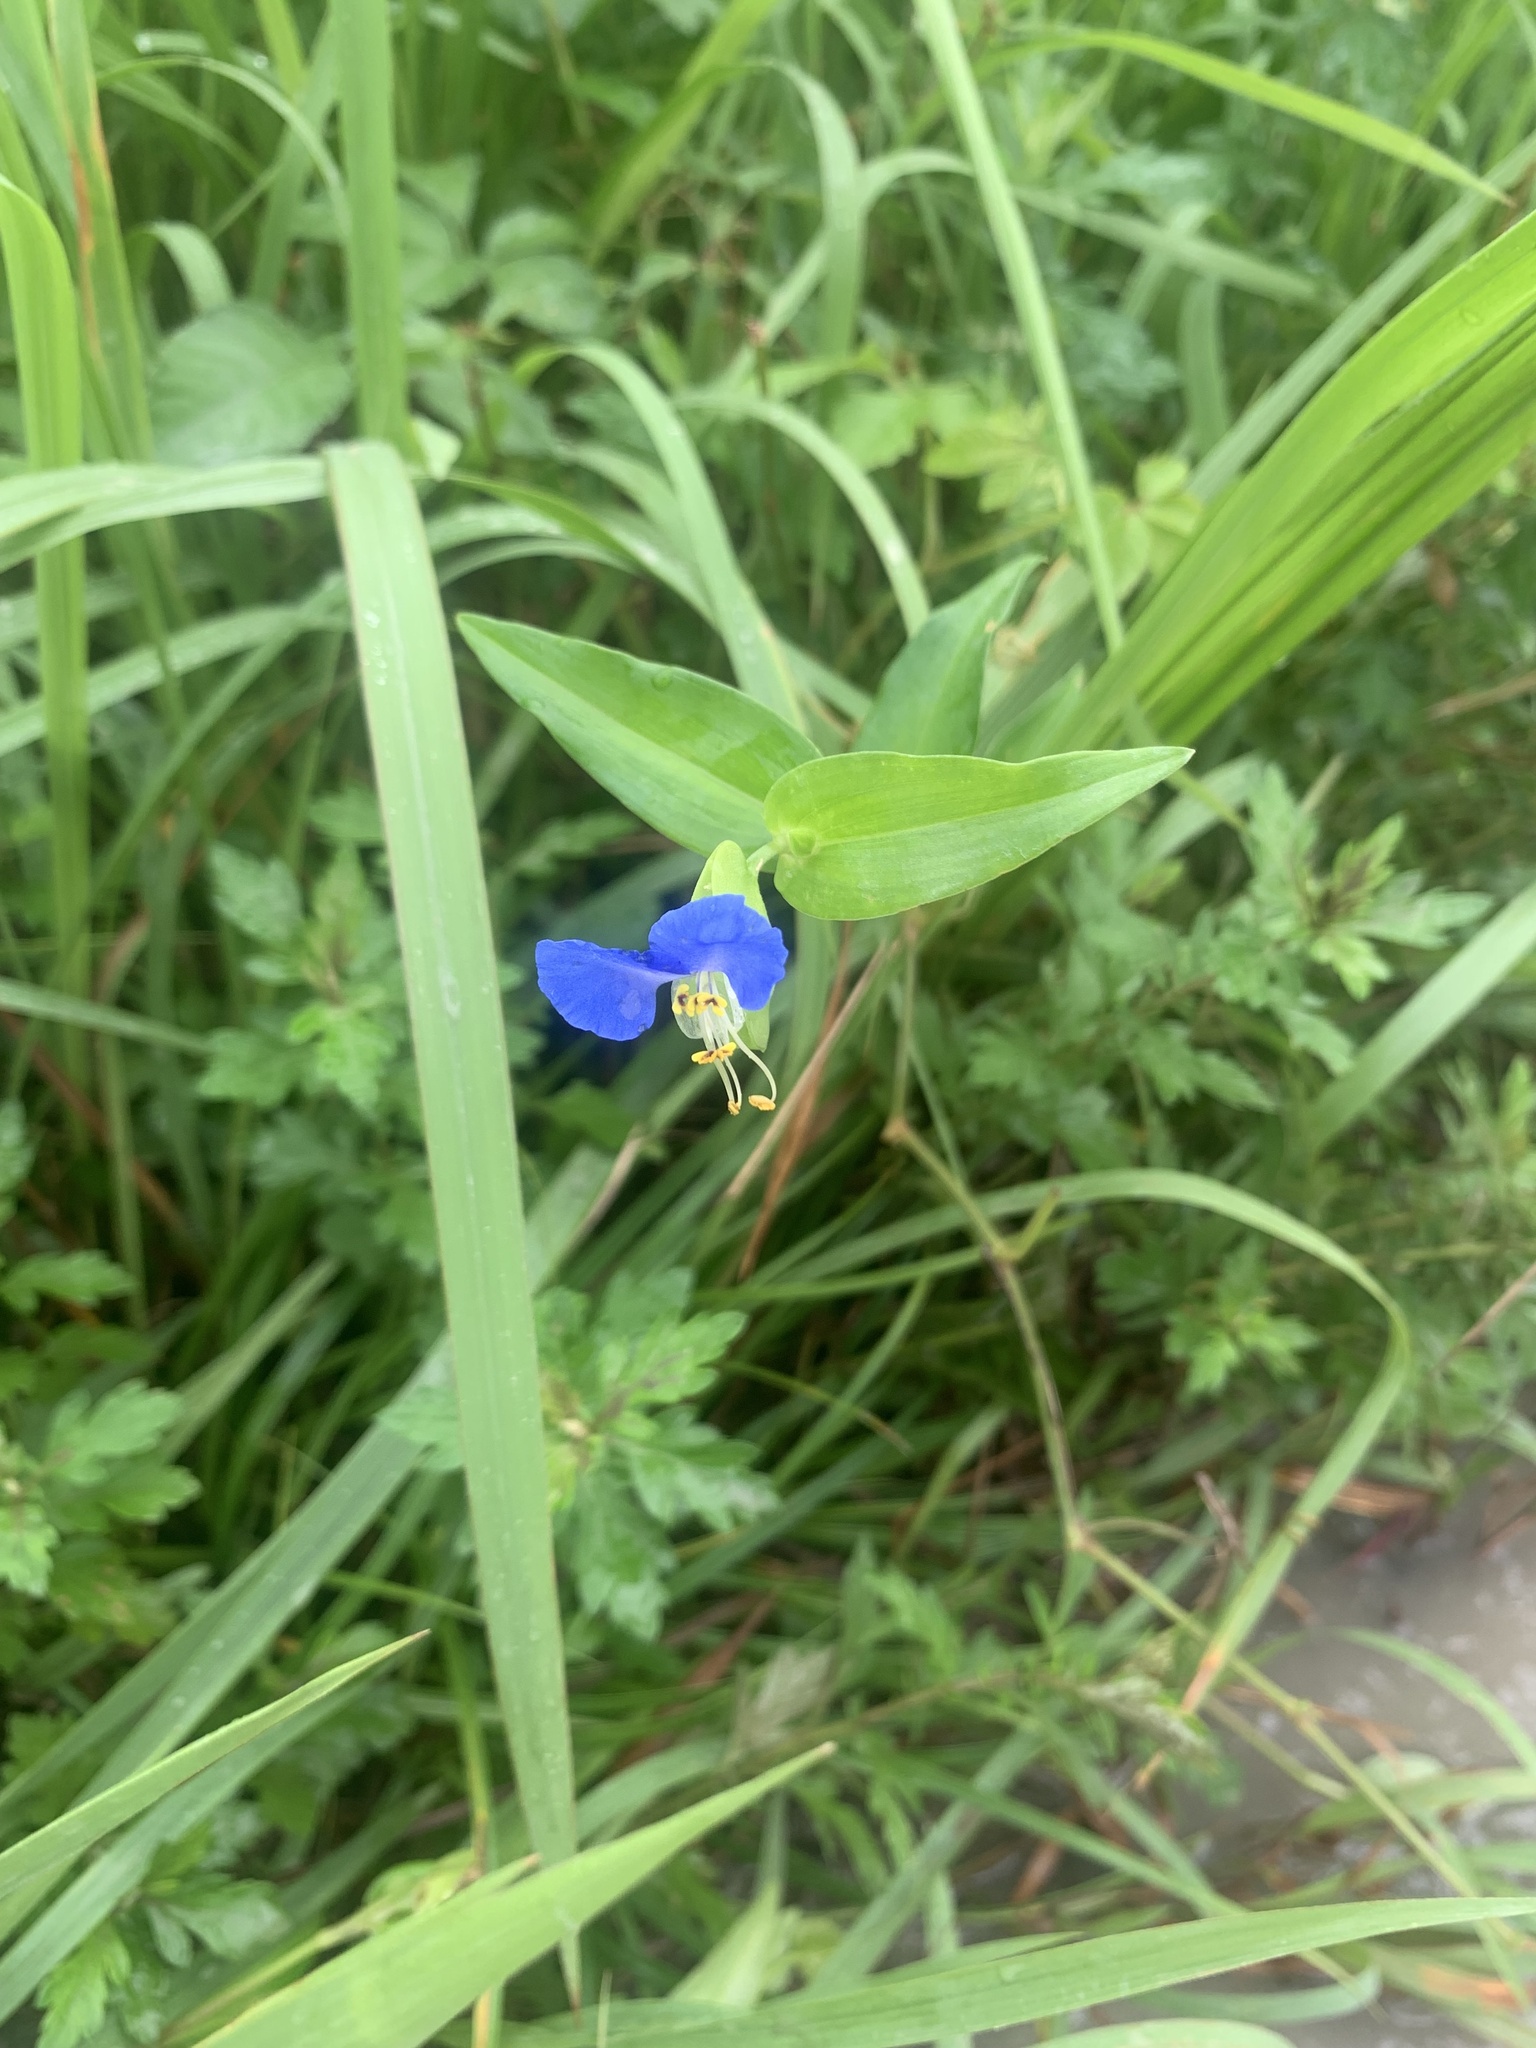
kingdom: Plantae
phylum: Tracheophyta
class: Liliopsida
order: Commelinales
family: Commelinaceae
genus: Commelina
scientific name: Commelina communis
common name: Asiatic dayflower
